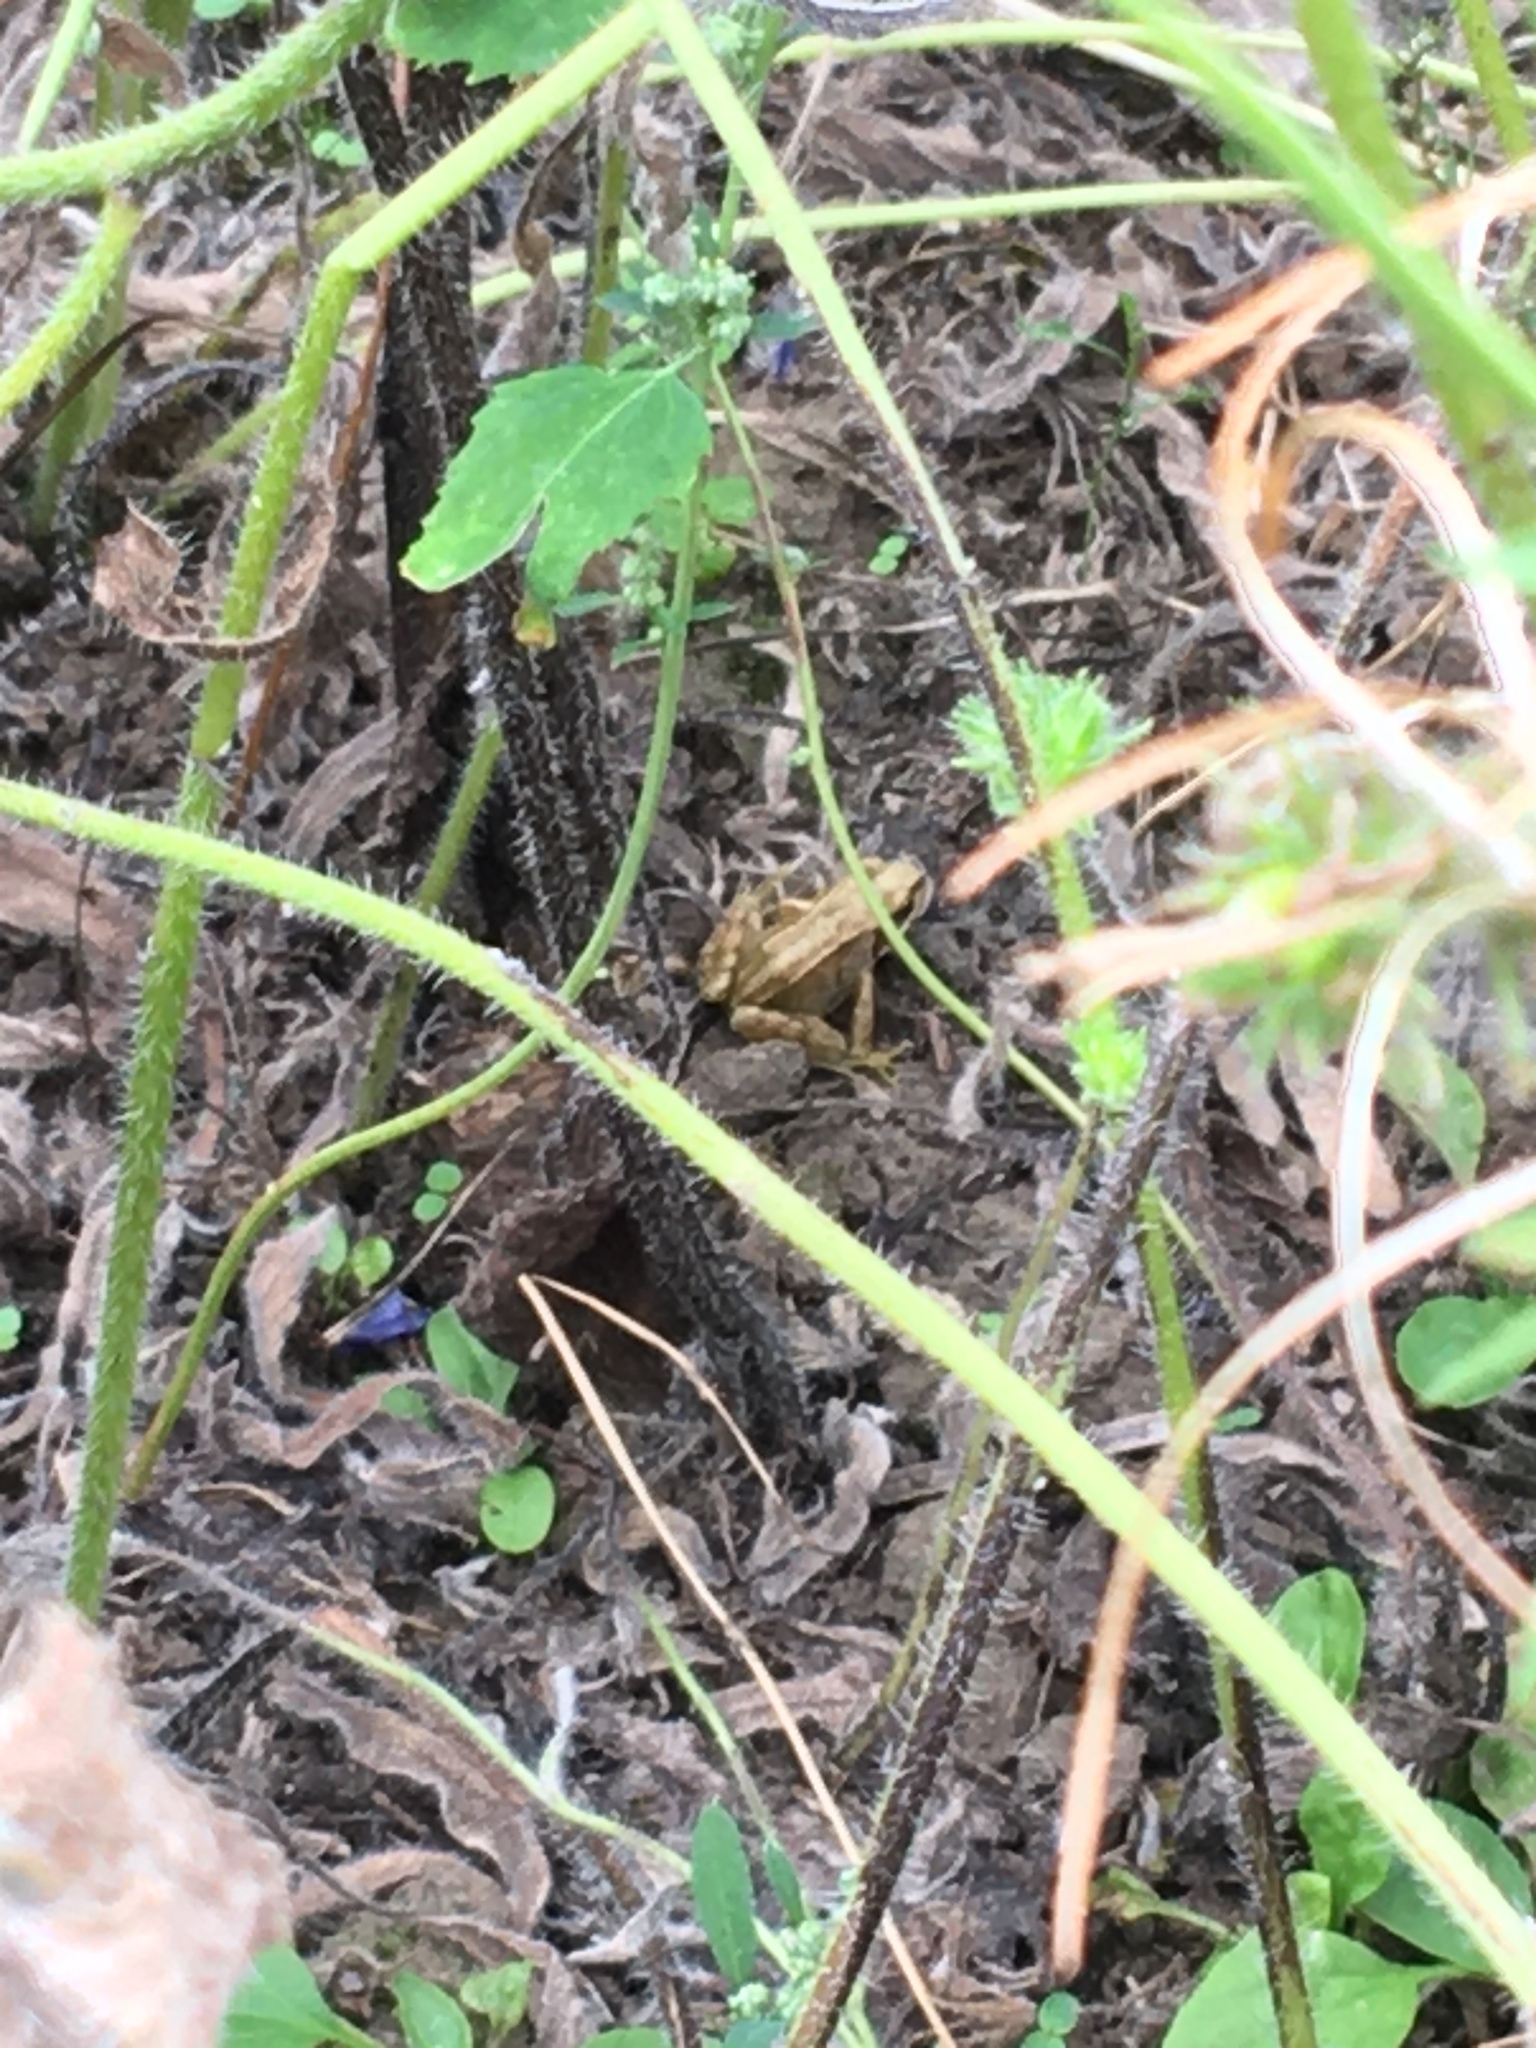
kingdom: Animalia
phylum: Chordata
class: Amphibia
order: Anura
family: Ranidae
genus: Rana
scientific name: Rana temporaria
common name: Common frog
